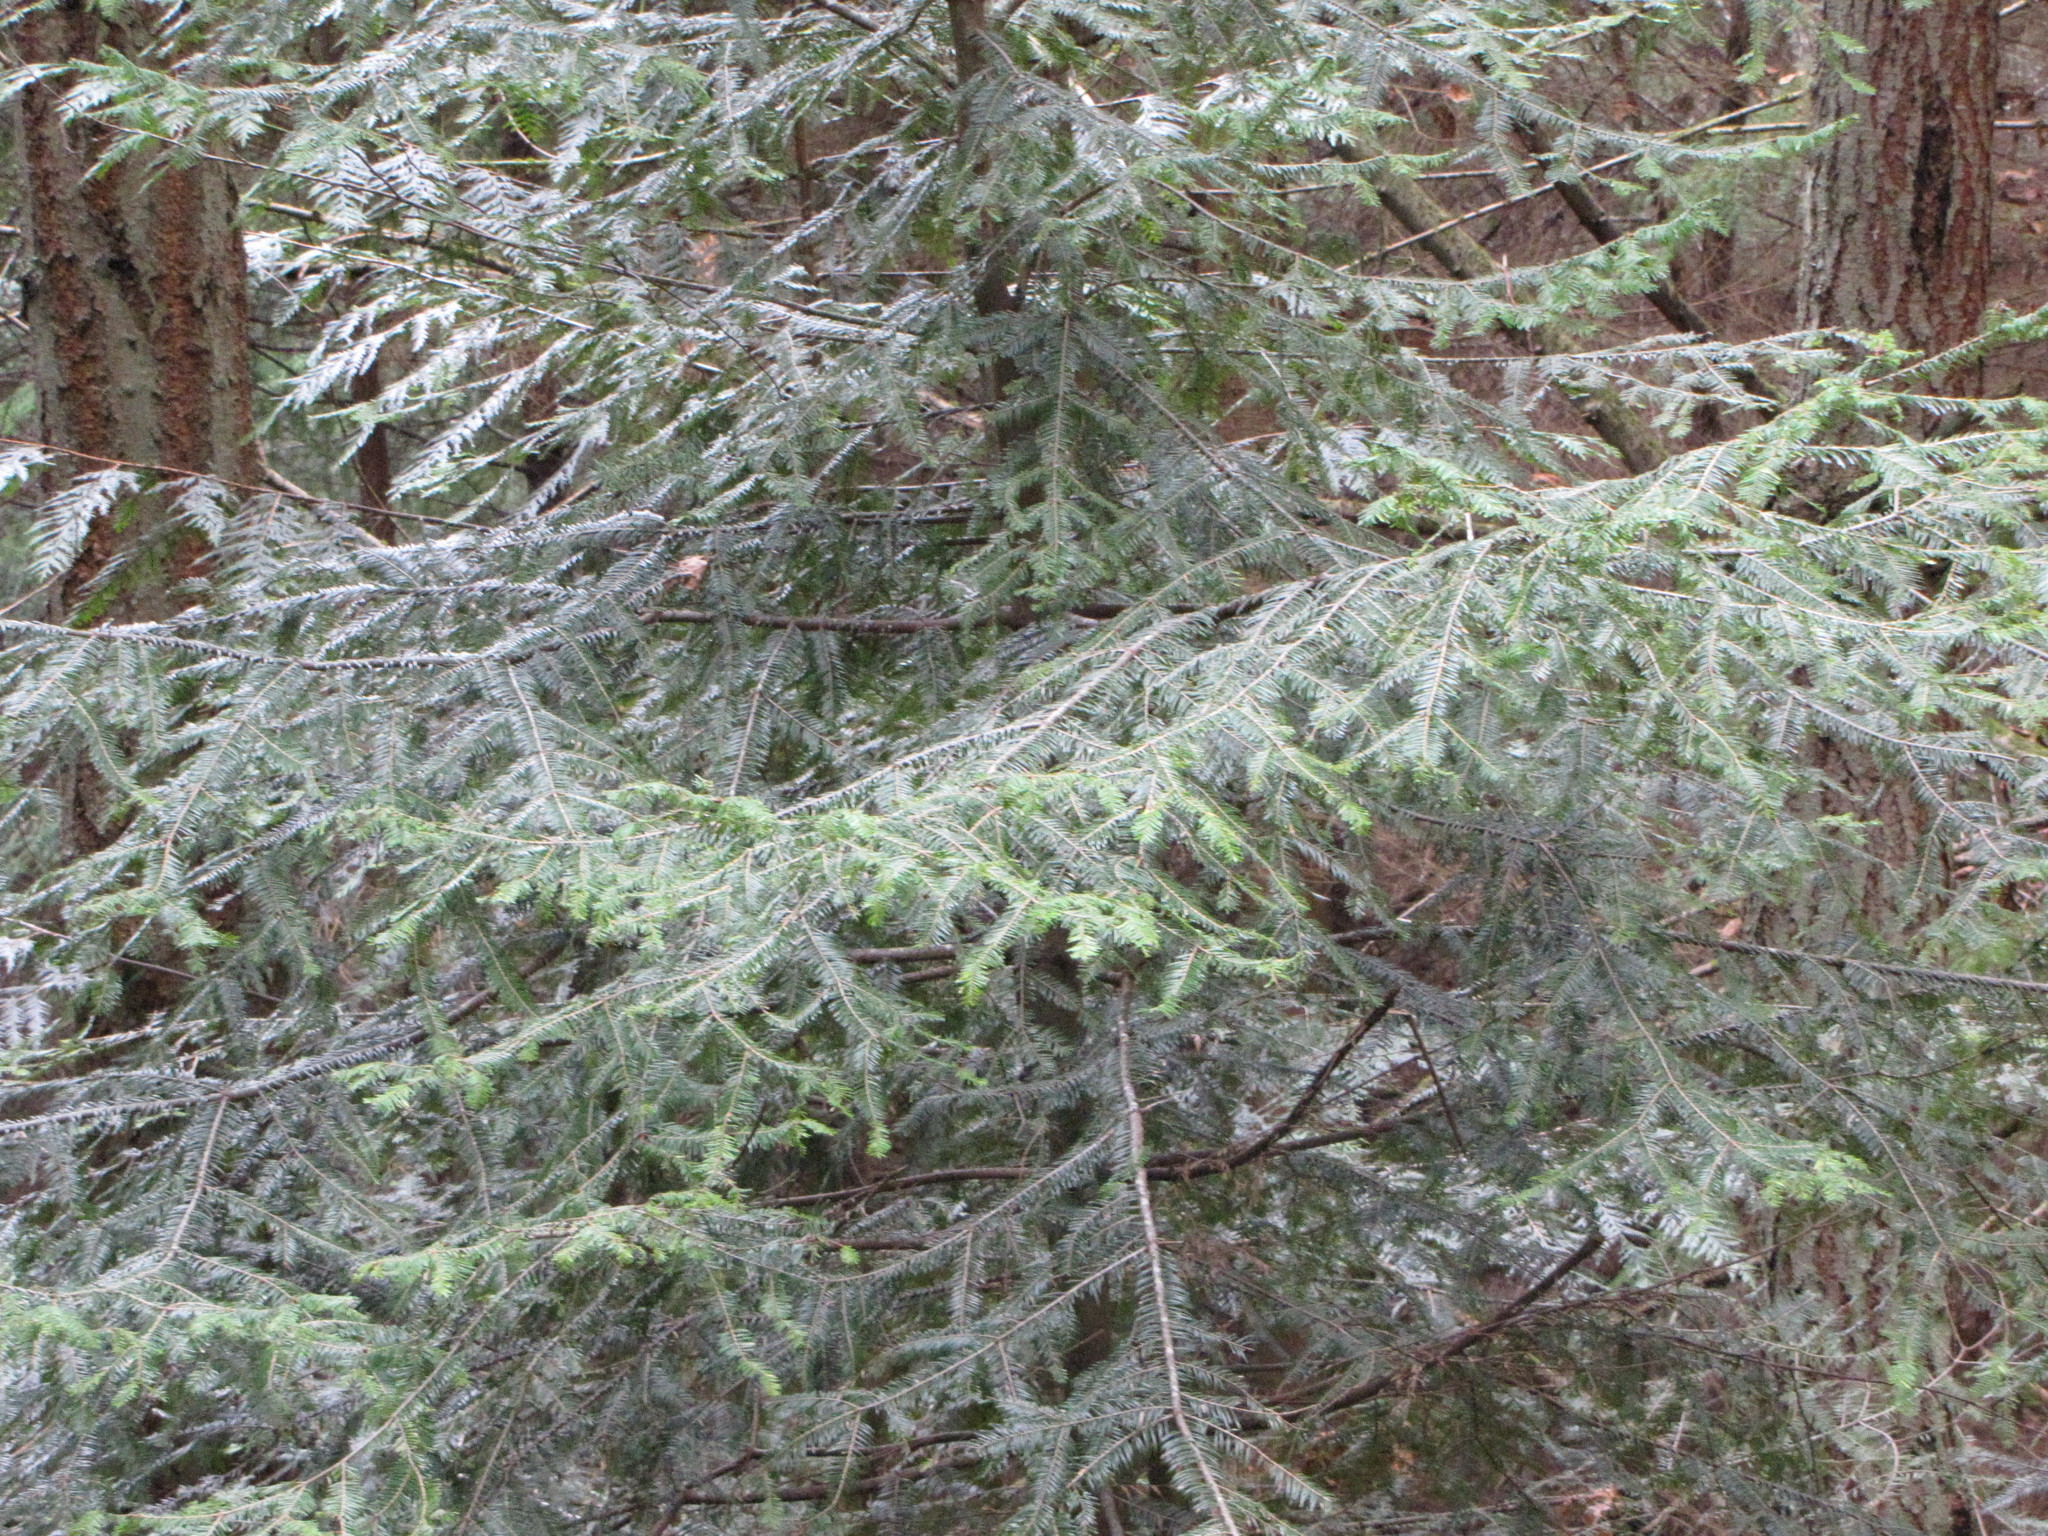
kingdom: Plantae
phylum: Tracheophyta
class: Pinopsida
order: Pinales
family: Pinaceae
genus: Abies
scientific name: Abies grandis
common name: Giant fir
